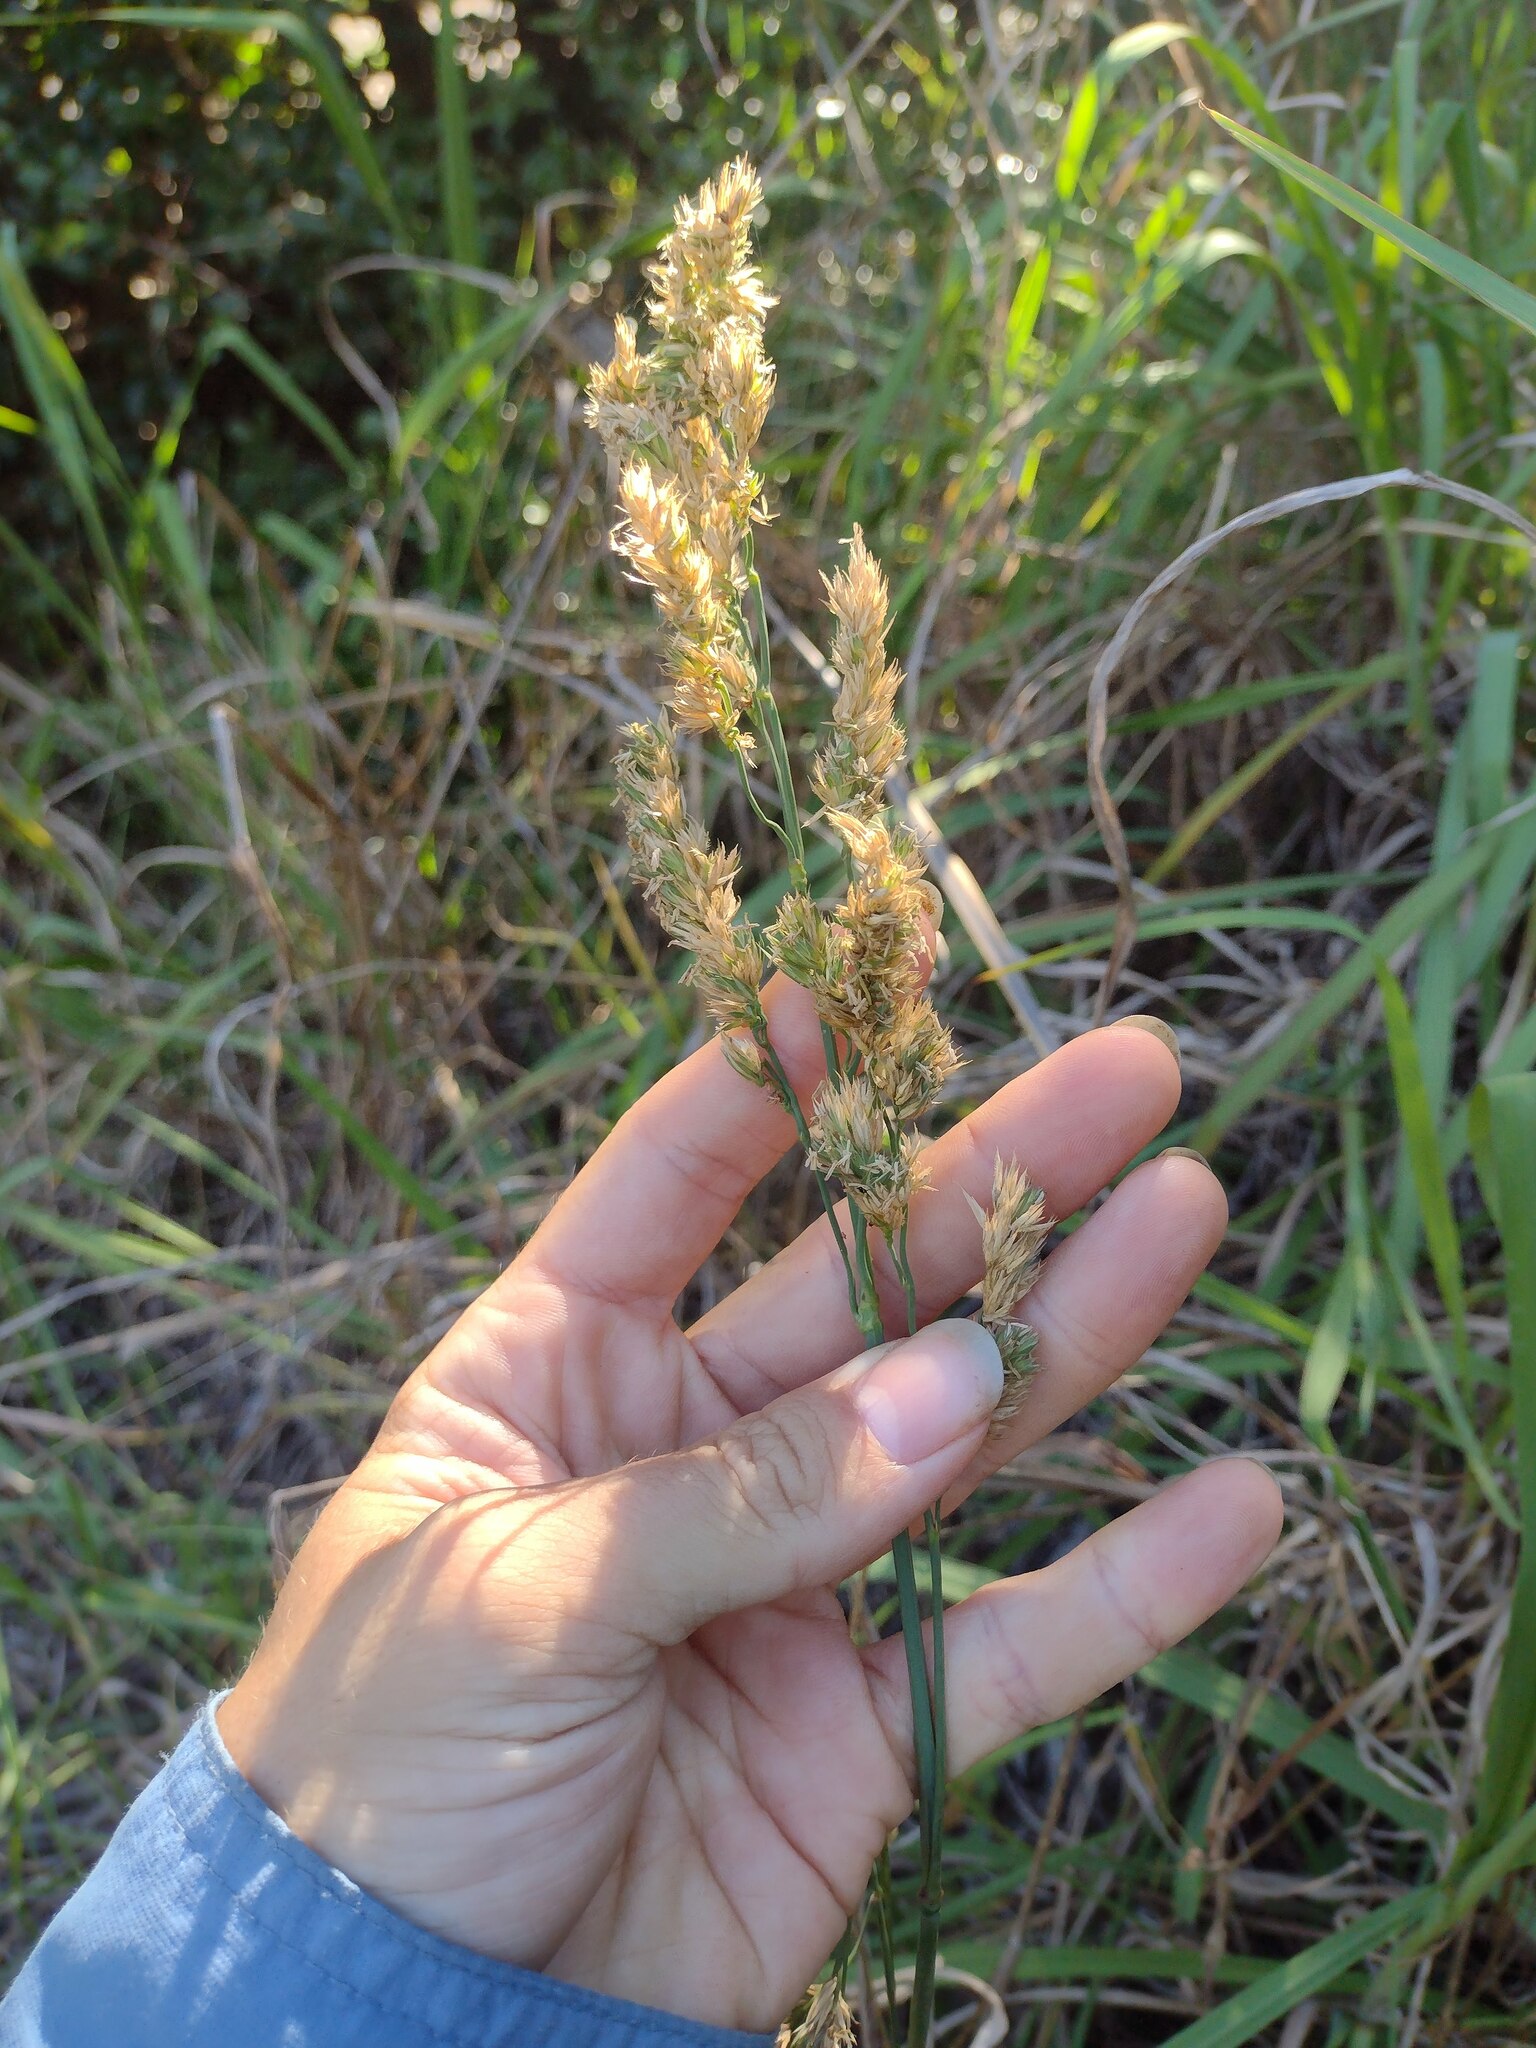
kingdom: Plantae
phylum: Tracheophyta
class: Liliopsida
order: Poales
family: Poaceae
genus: Dactylis
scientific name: Dactylis glomerata
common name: Orchardgrass
